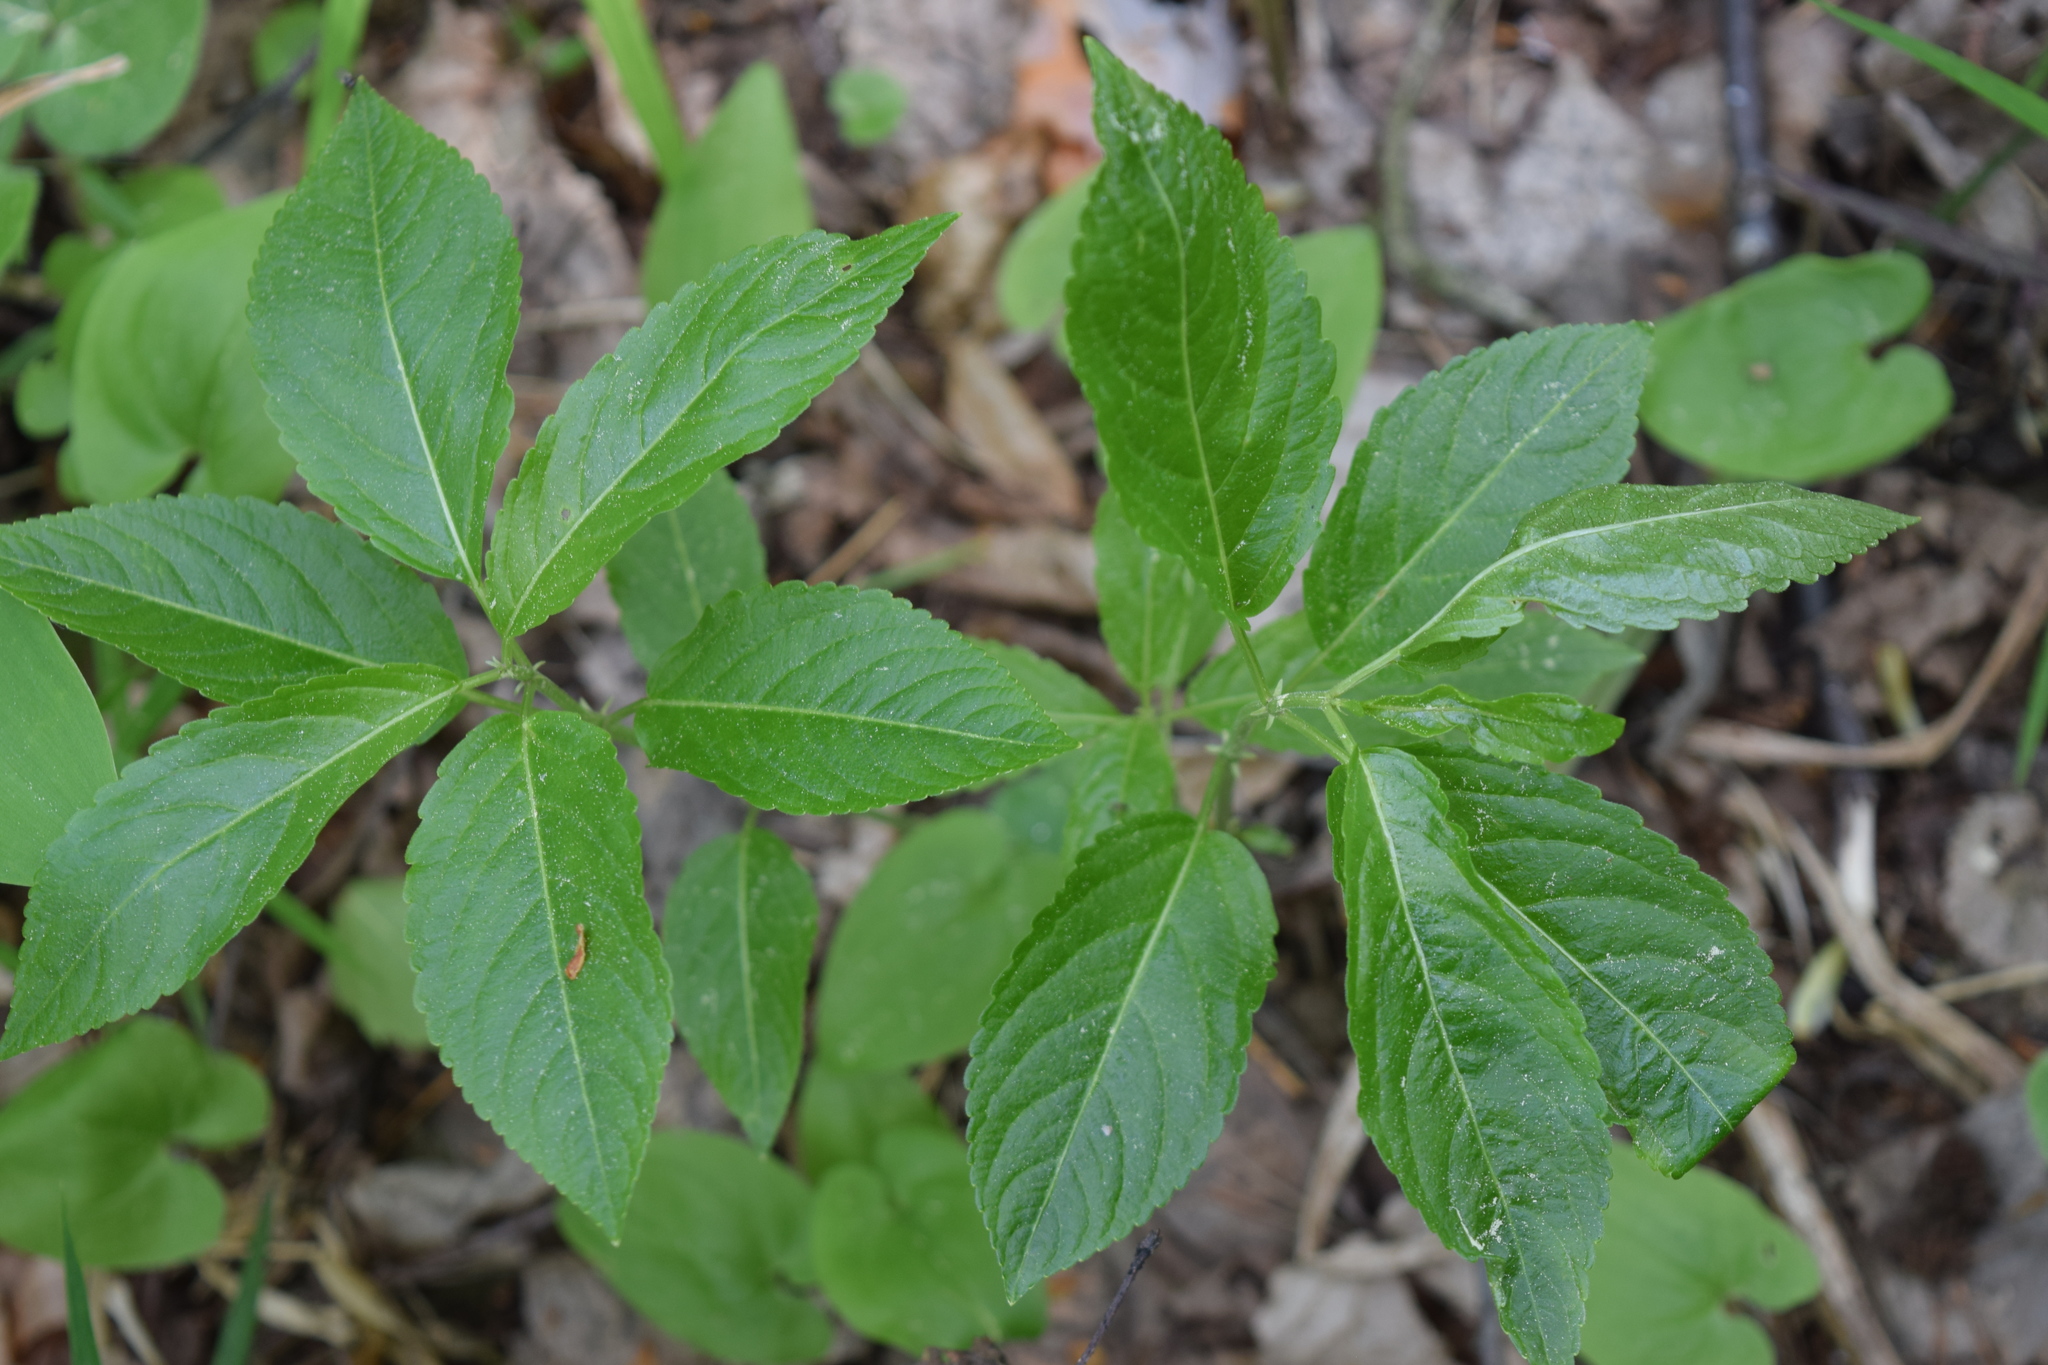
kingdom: Plantae
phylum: Tracheophyta
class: Magnoliopsida
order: Malpighiales
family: Euphorbiaceae
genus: Mercurialis
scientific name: Mercurialis perennis
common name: Dog mercury
